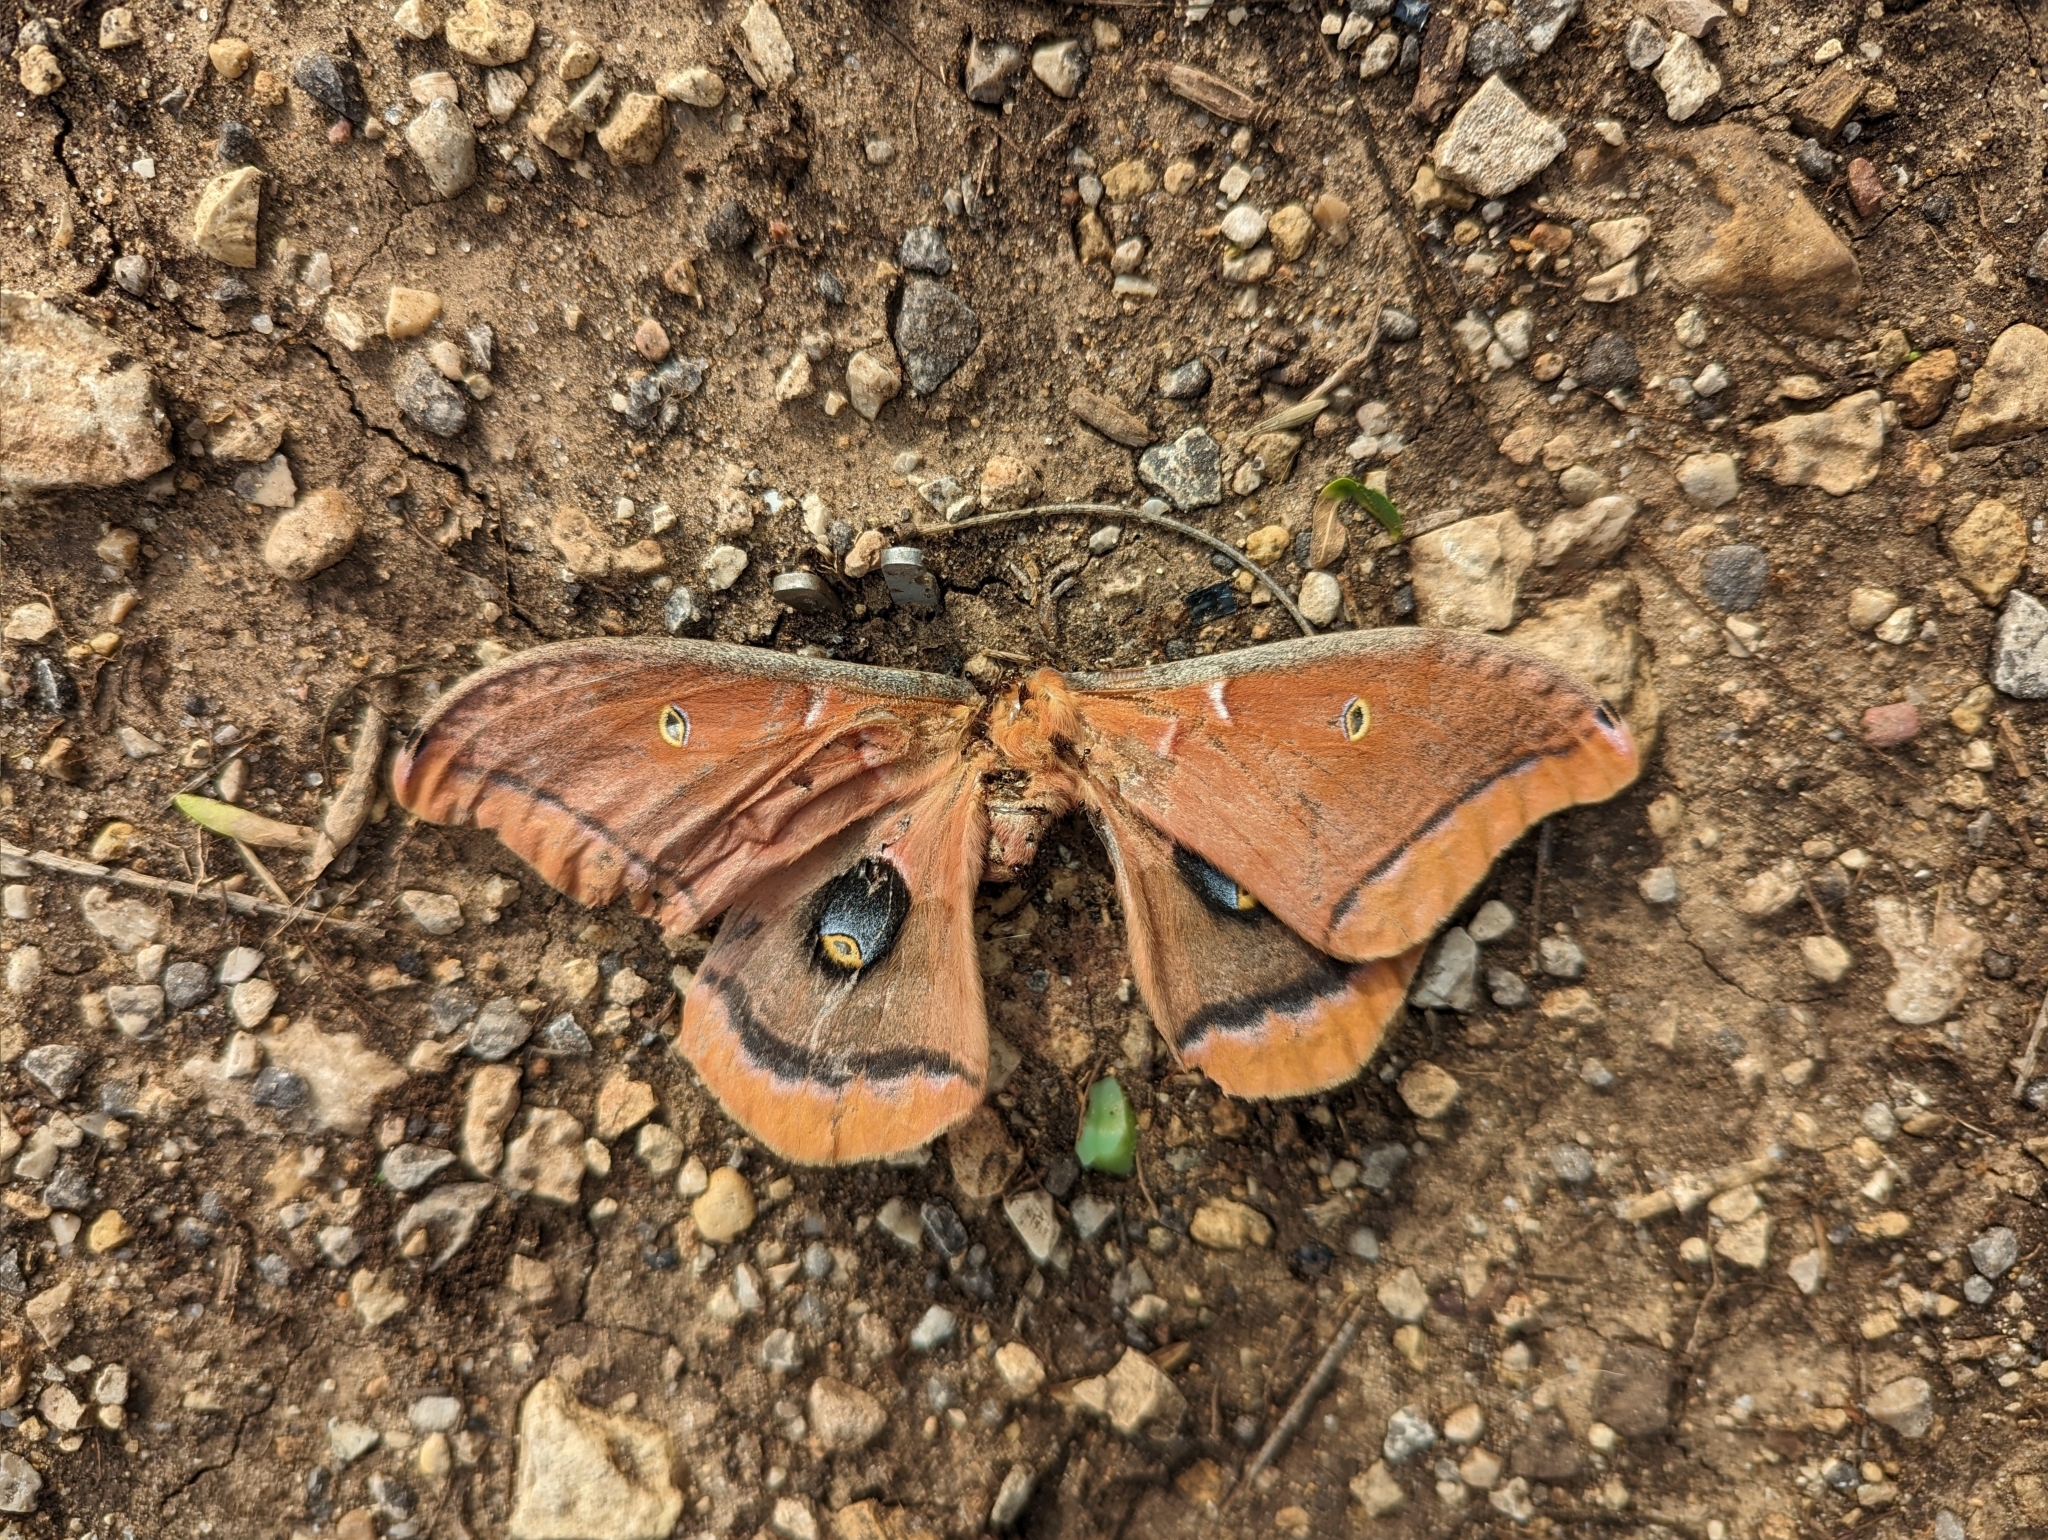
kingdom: Animalia
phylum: Arthropoda
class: Insecta
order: Lepidoptera
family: Saturniidae
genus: Antheraea
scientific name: Antheraea polyphemus
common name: Polyphemus moth
